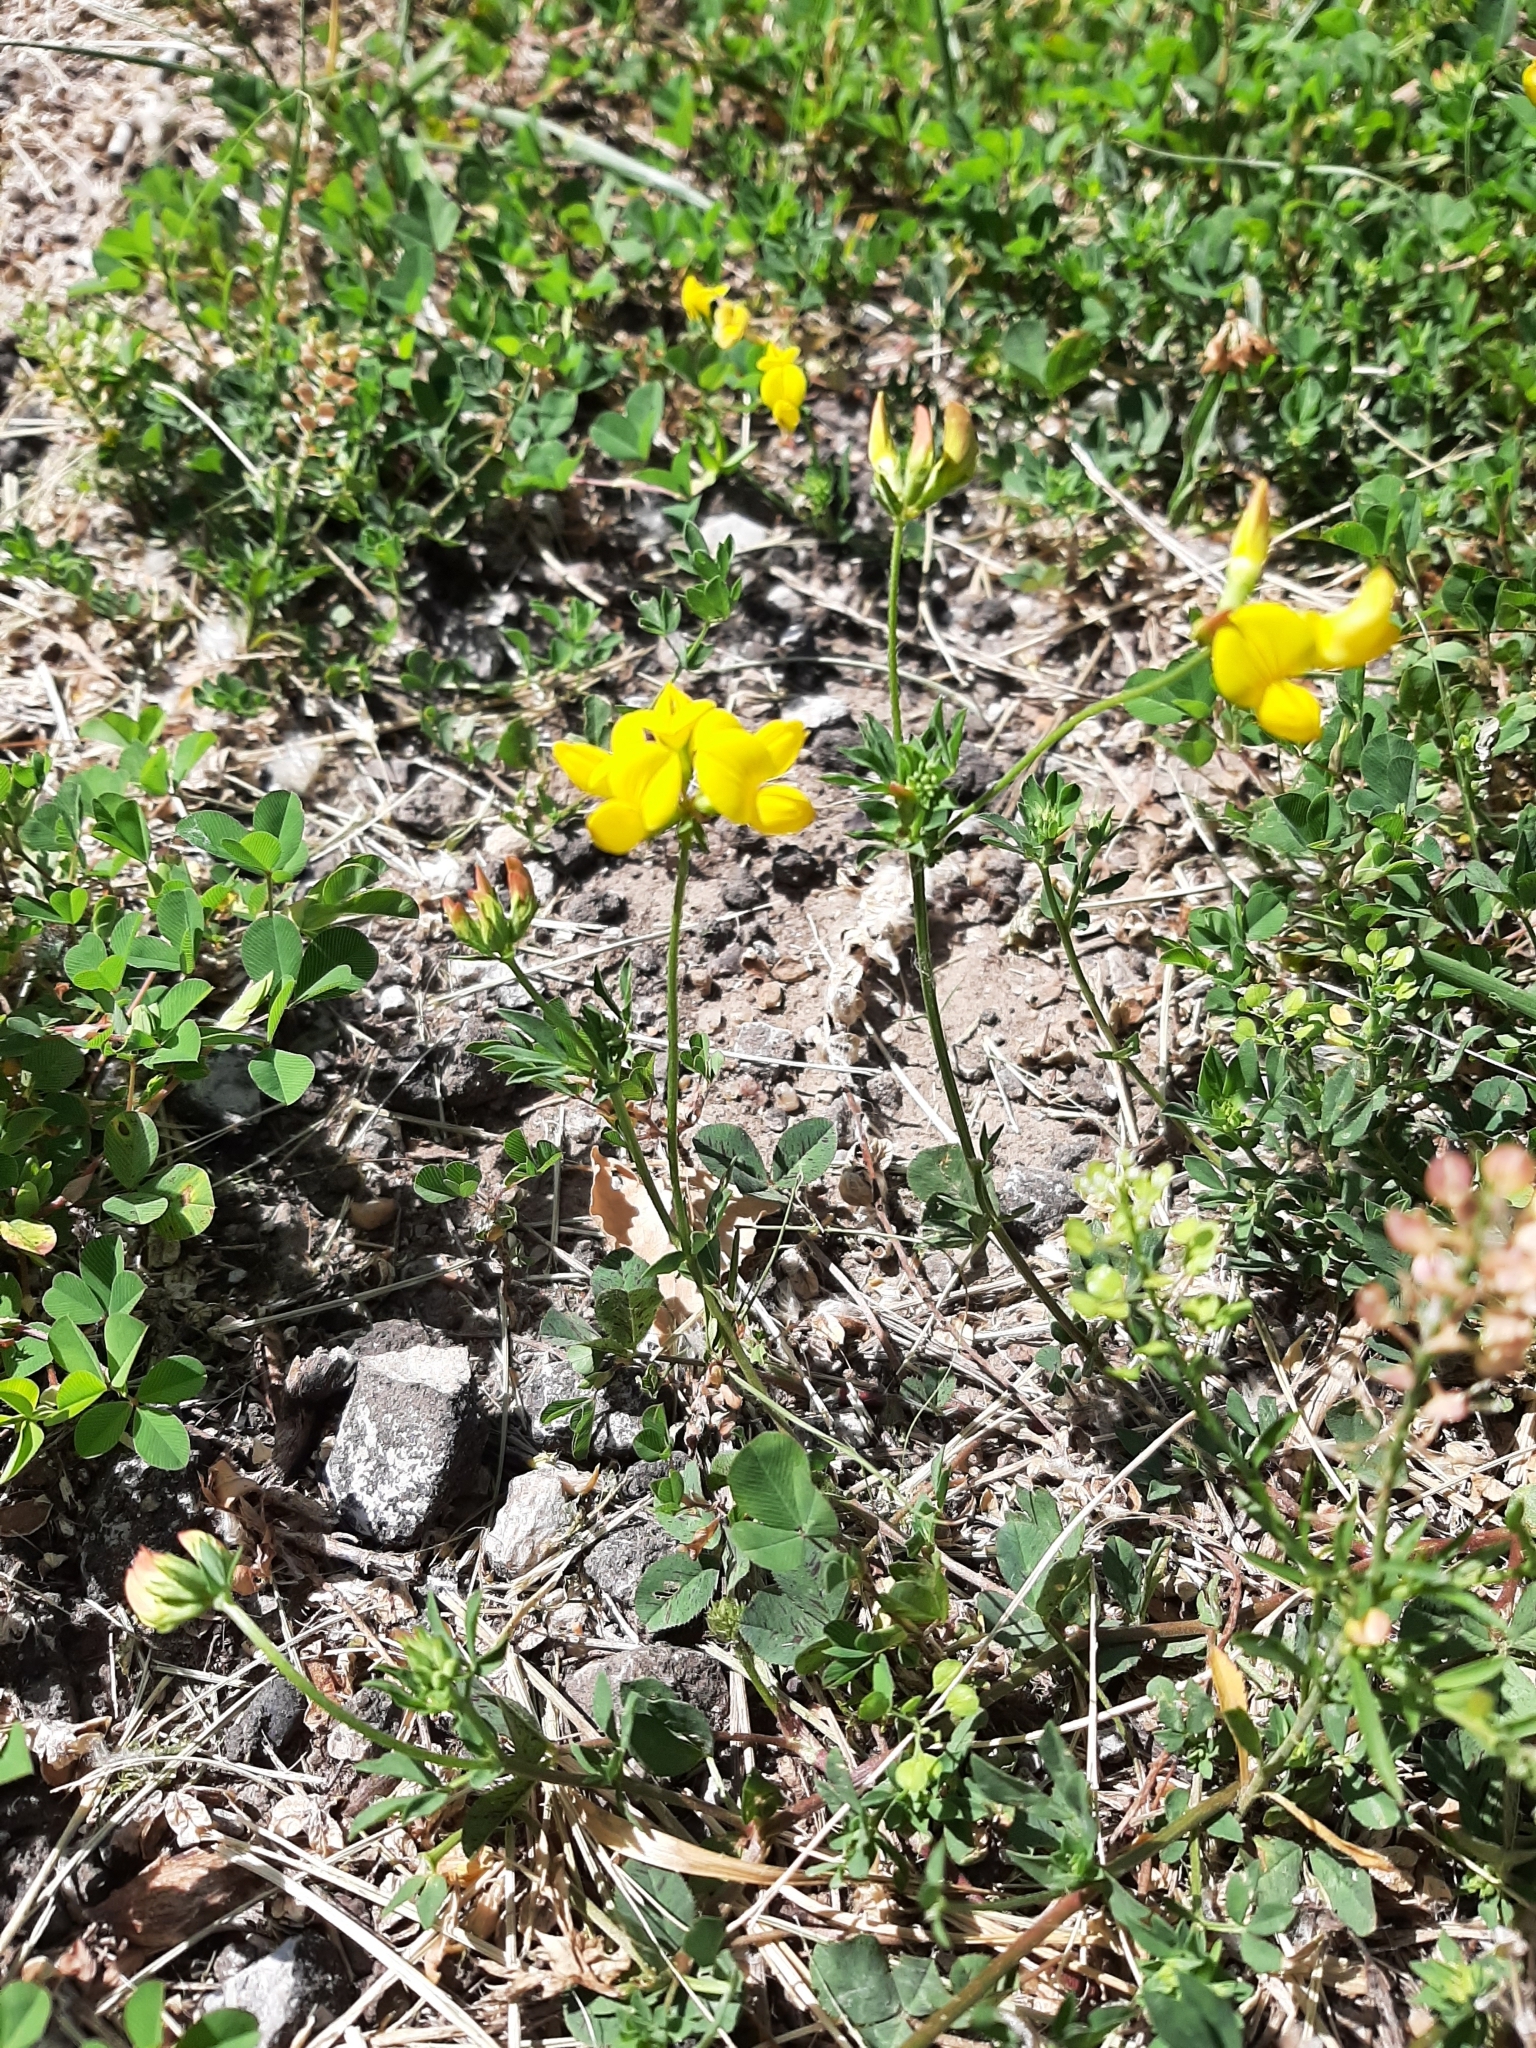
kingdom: Plantae
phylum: Tracheophyta
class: Magnoliopsida
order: Fabales
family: Fabaceae
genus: Lotus
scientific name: Lotus corniculatus
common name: Common bird's-foot-trefoil
